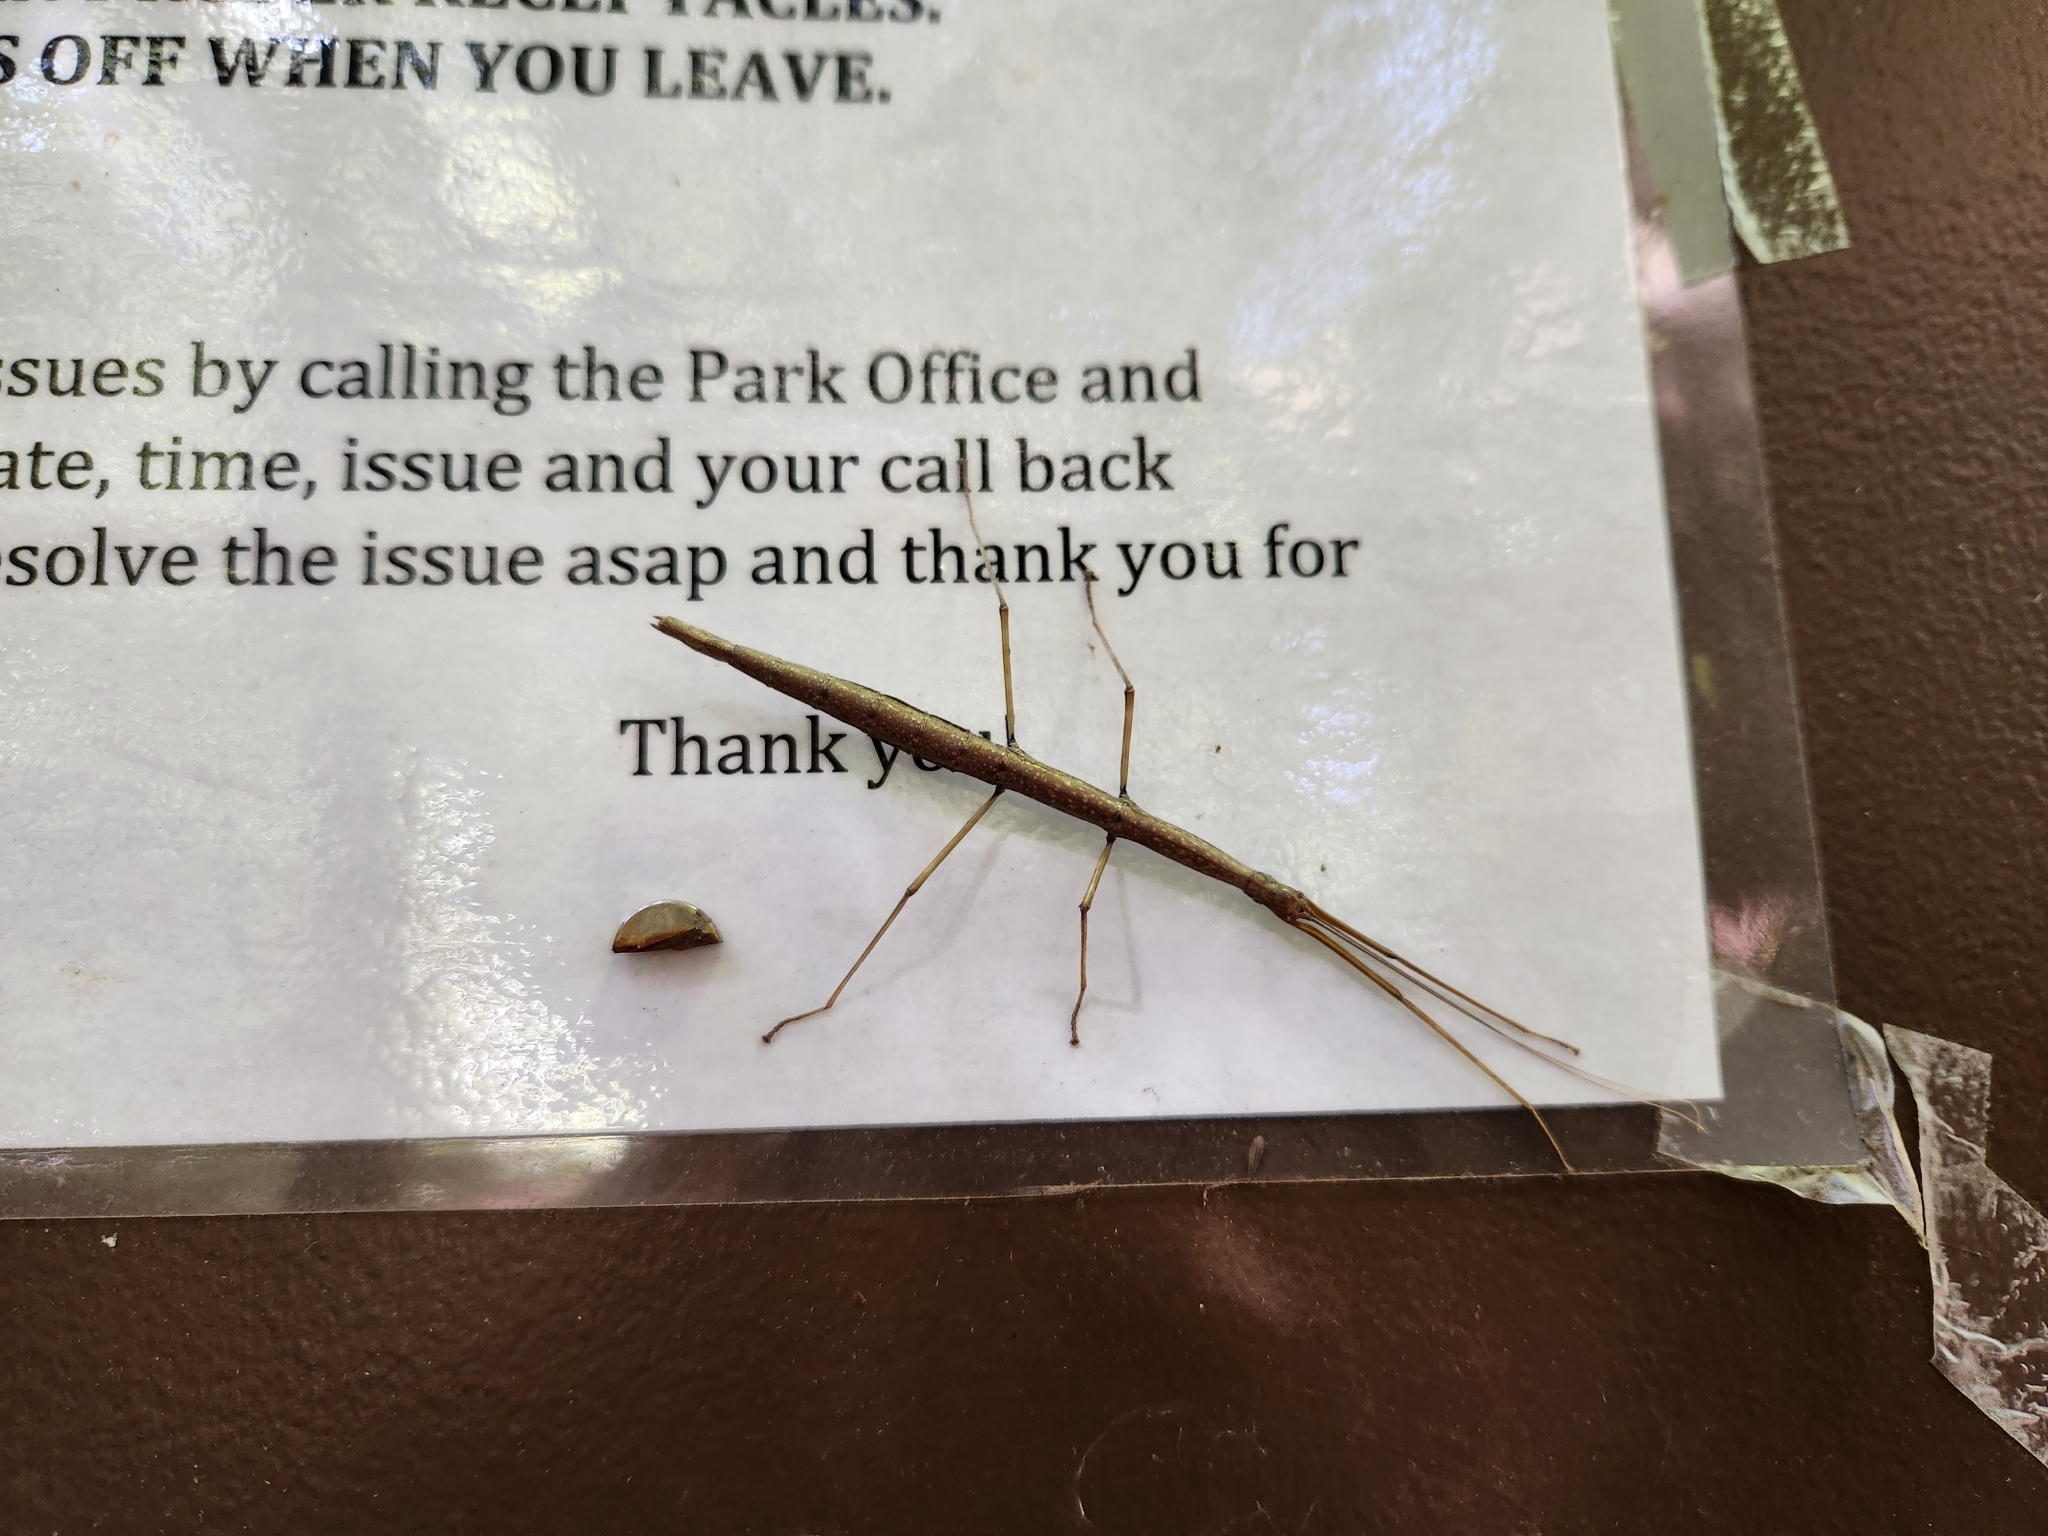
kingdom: Animalia
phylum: Arthropoda
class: Insecta
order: Phasmida
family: Diapheromeridae
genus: Diapheromera
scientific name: Diapheromera femorata
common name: Common american walkingstick
